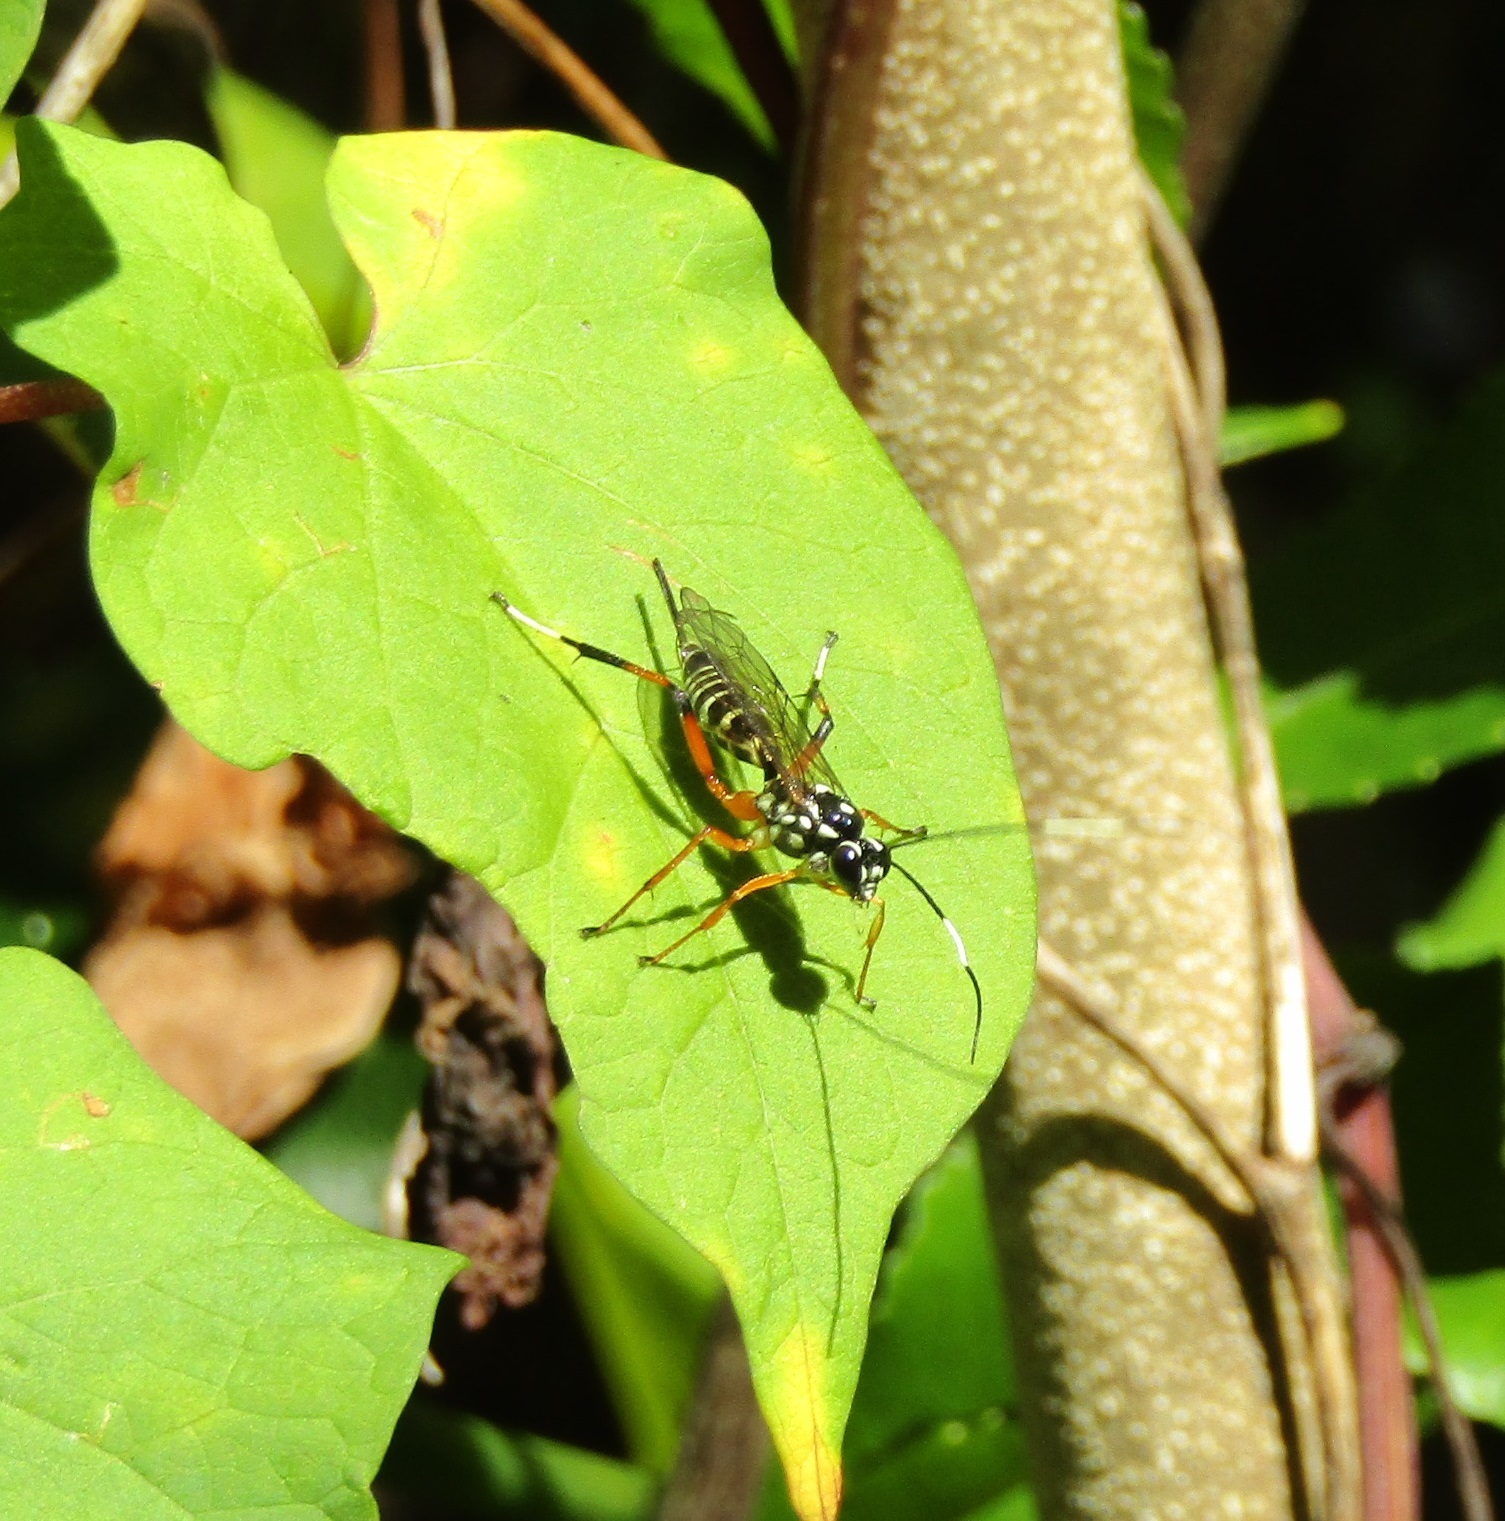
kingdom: Animalia
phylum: Arthropoda
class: Insecta
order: Hymenoptera
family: Ichneumonidae
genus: Xanthocryptus
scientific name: Xanthocryptus novozealandicus
